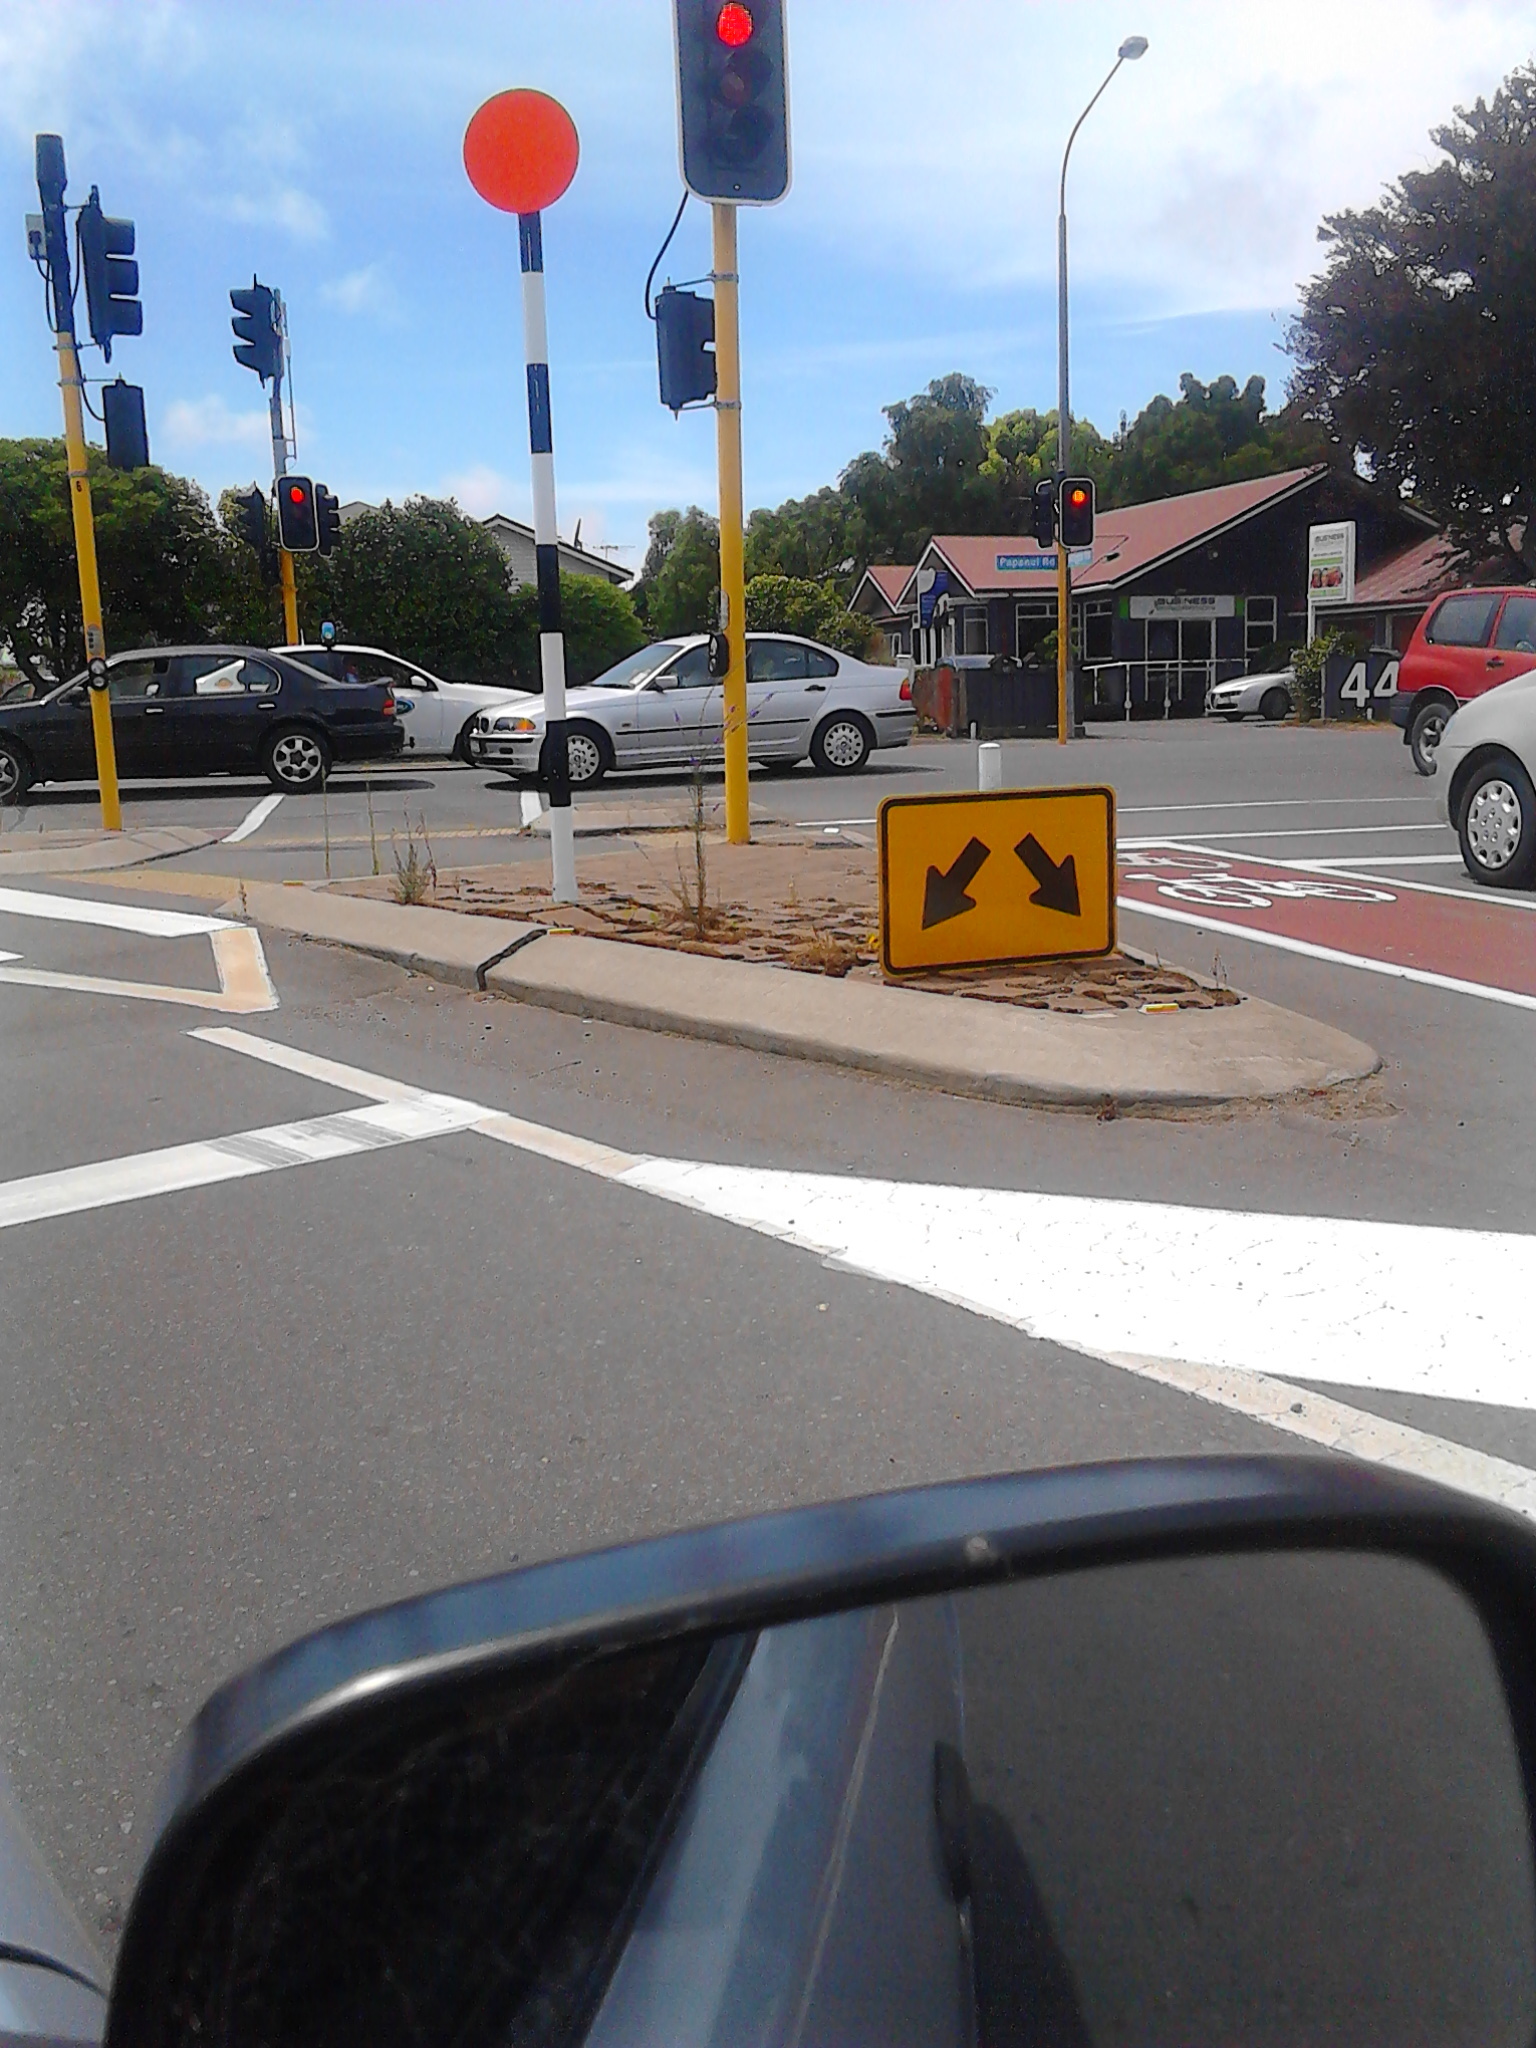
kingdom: Plantae
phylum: Tracheophyta
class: Magnoliopsida
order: Lamiales
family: Plantaginaceae
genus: Linaria
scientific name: Linaria purpurea
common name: Purple toadflax
